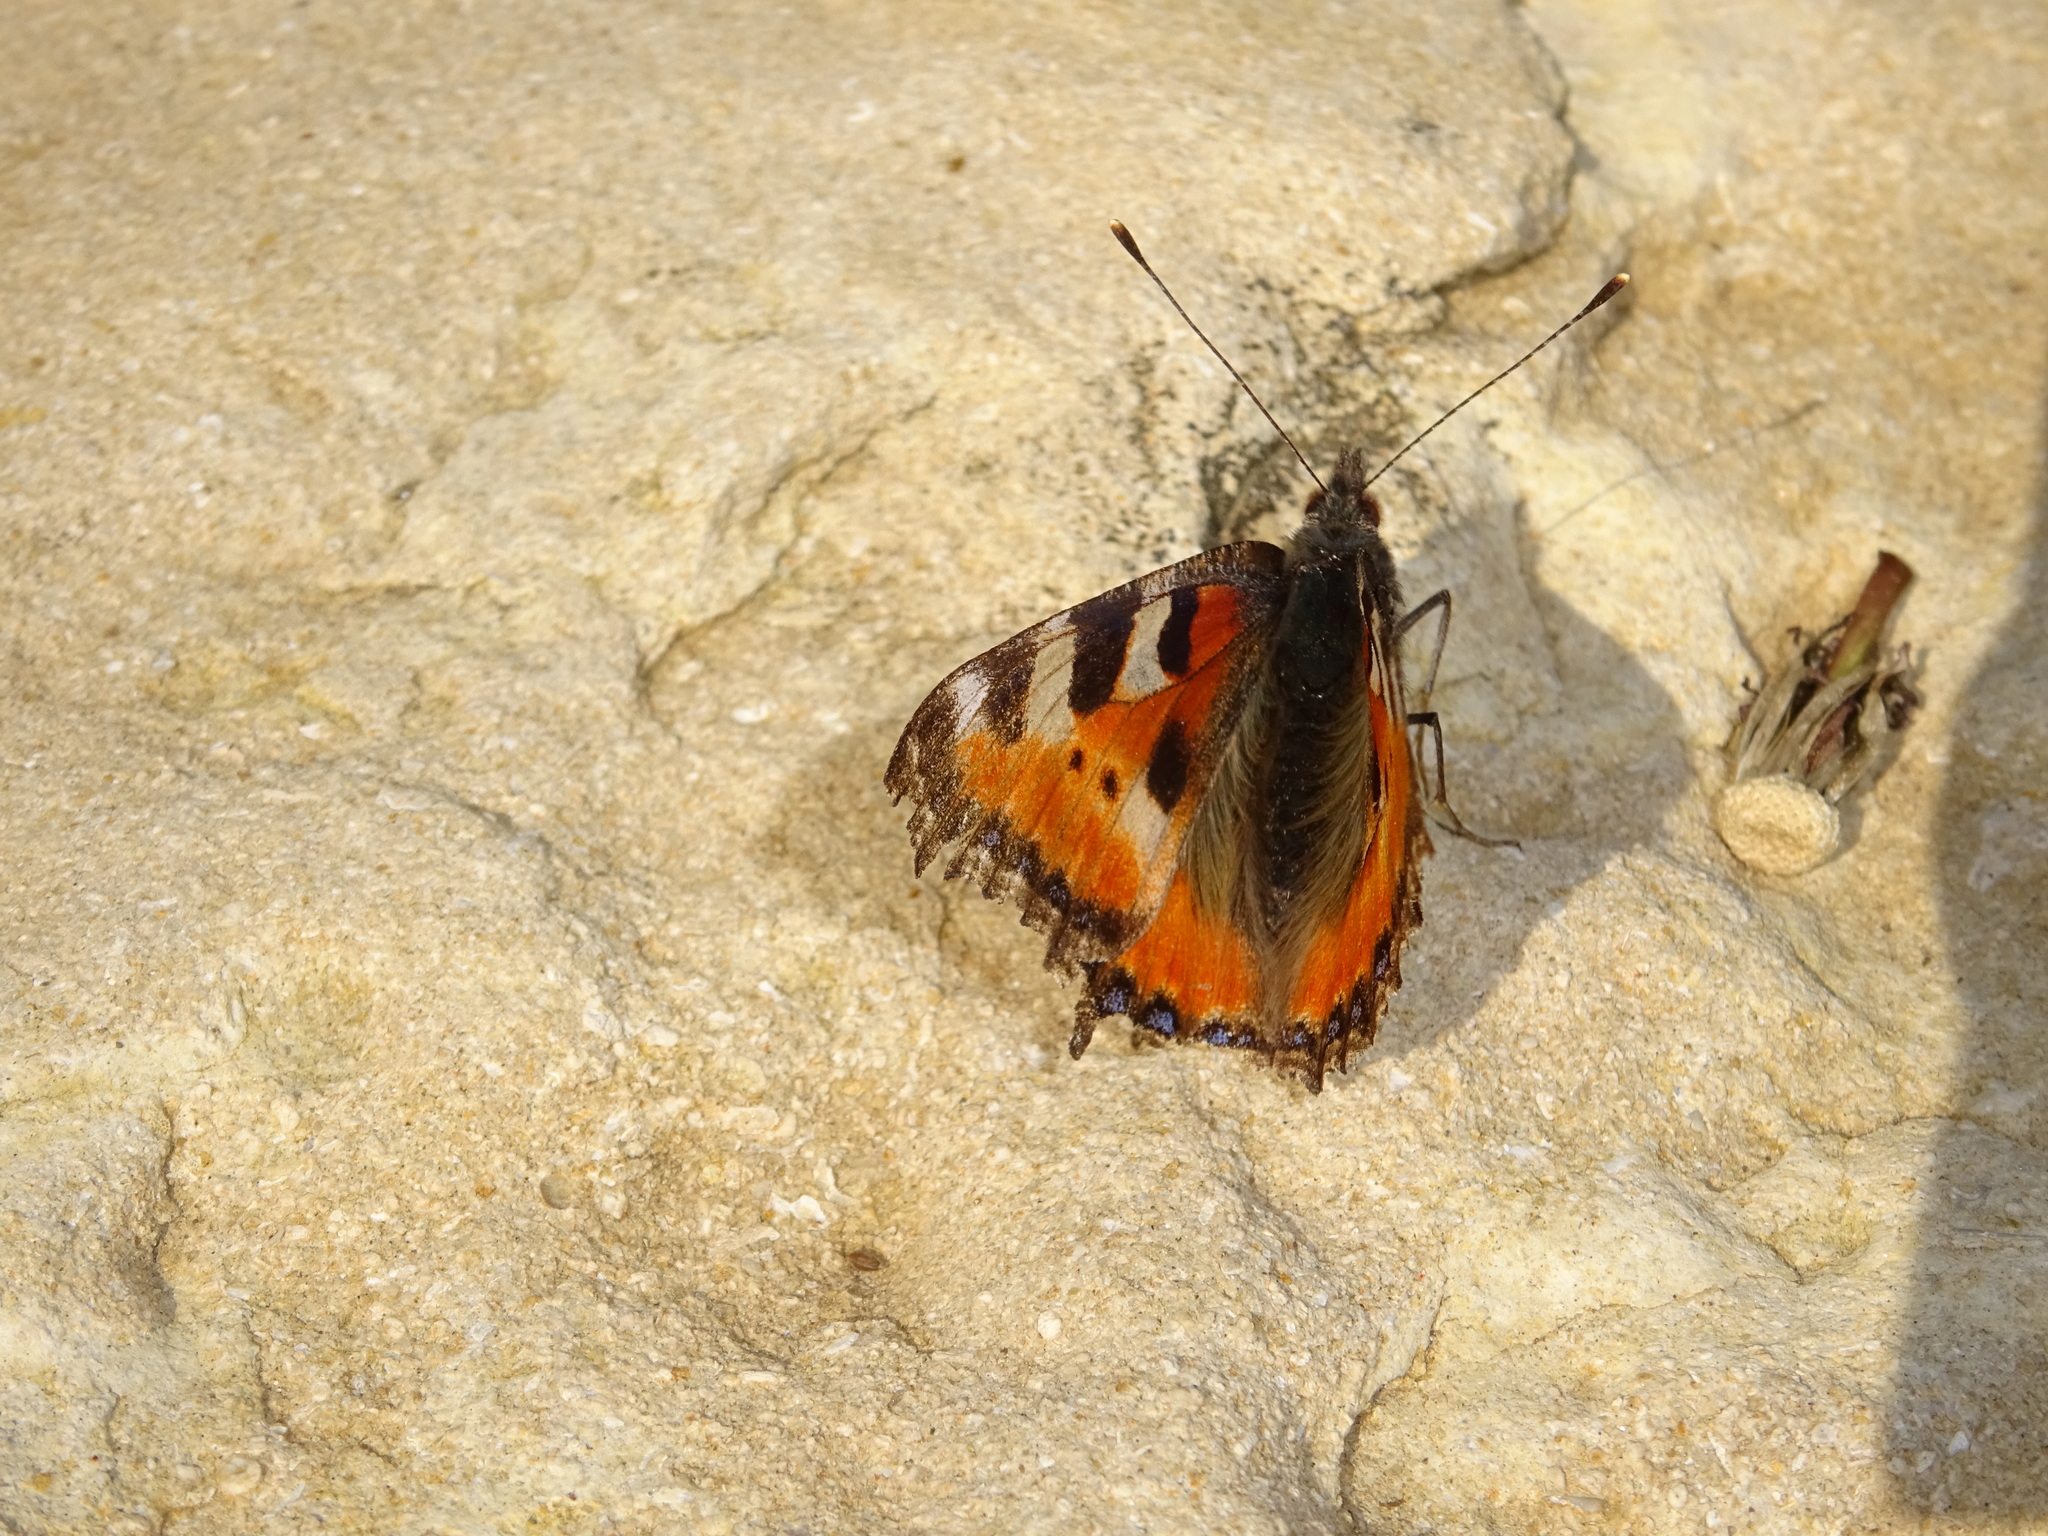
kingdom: Animalia
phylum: Arthropoda
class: Insecta
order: Lepidoptera
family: Nymphalidae
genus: Aglais
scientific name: Aglais urticae
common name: Small tortoiseshell
